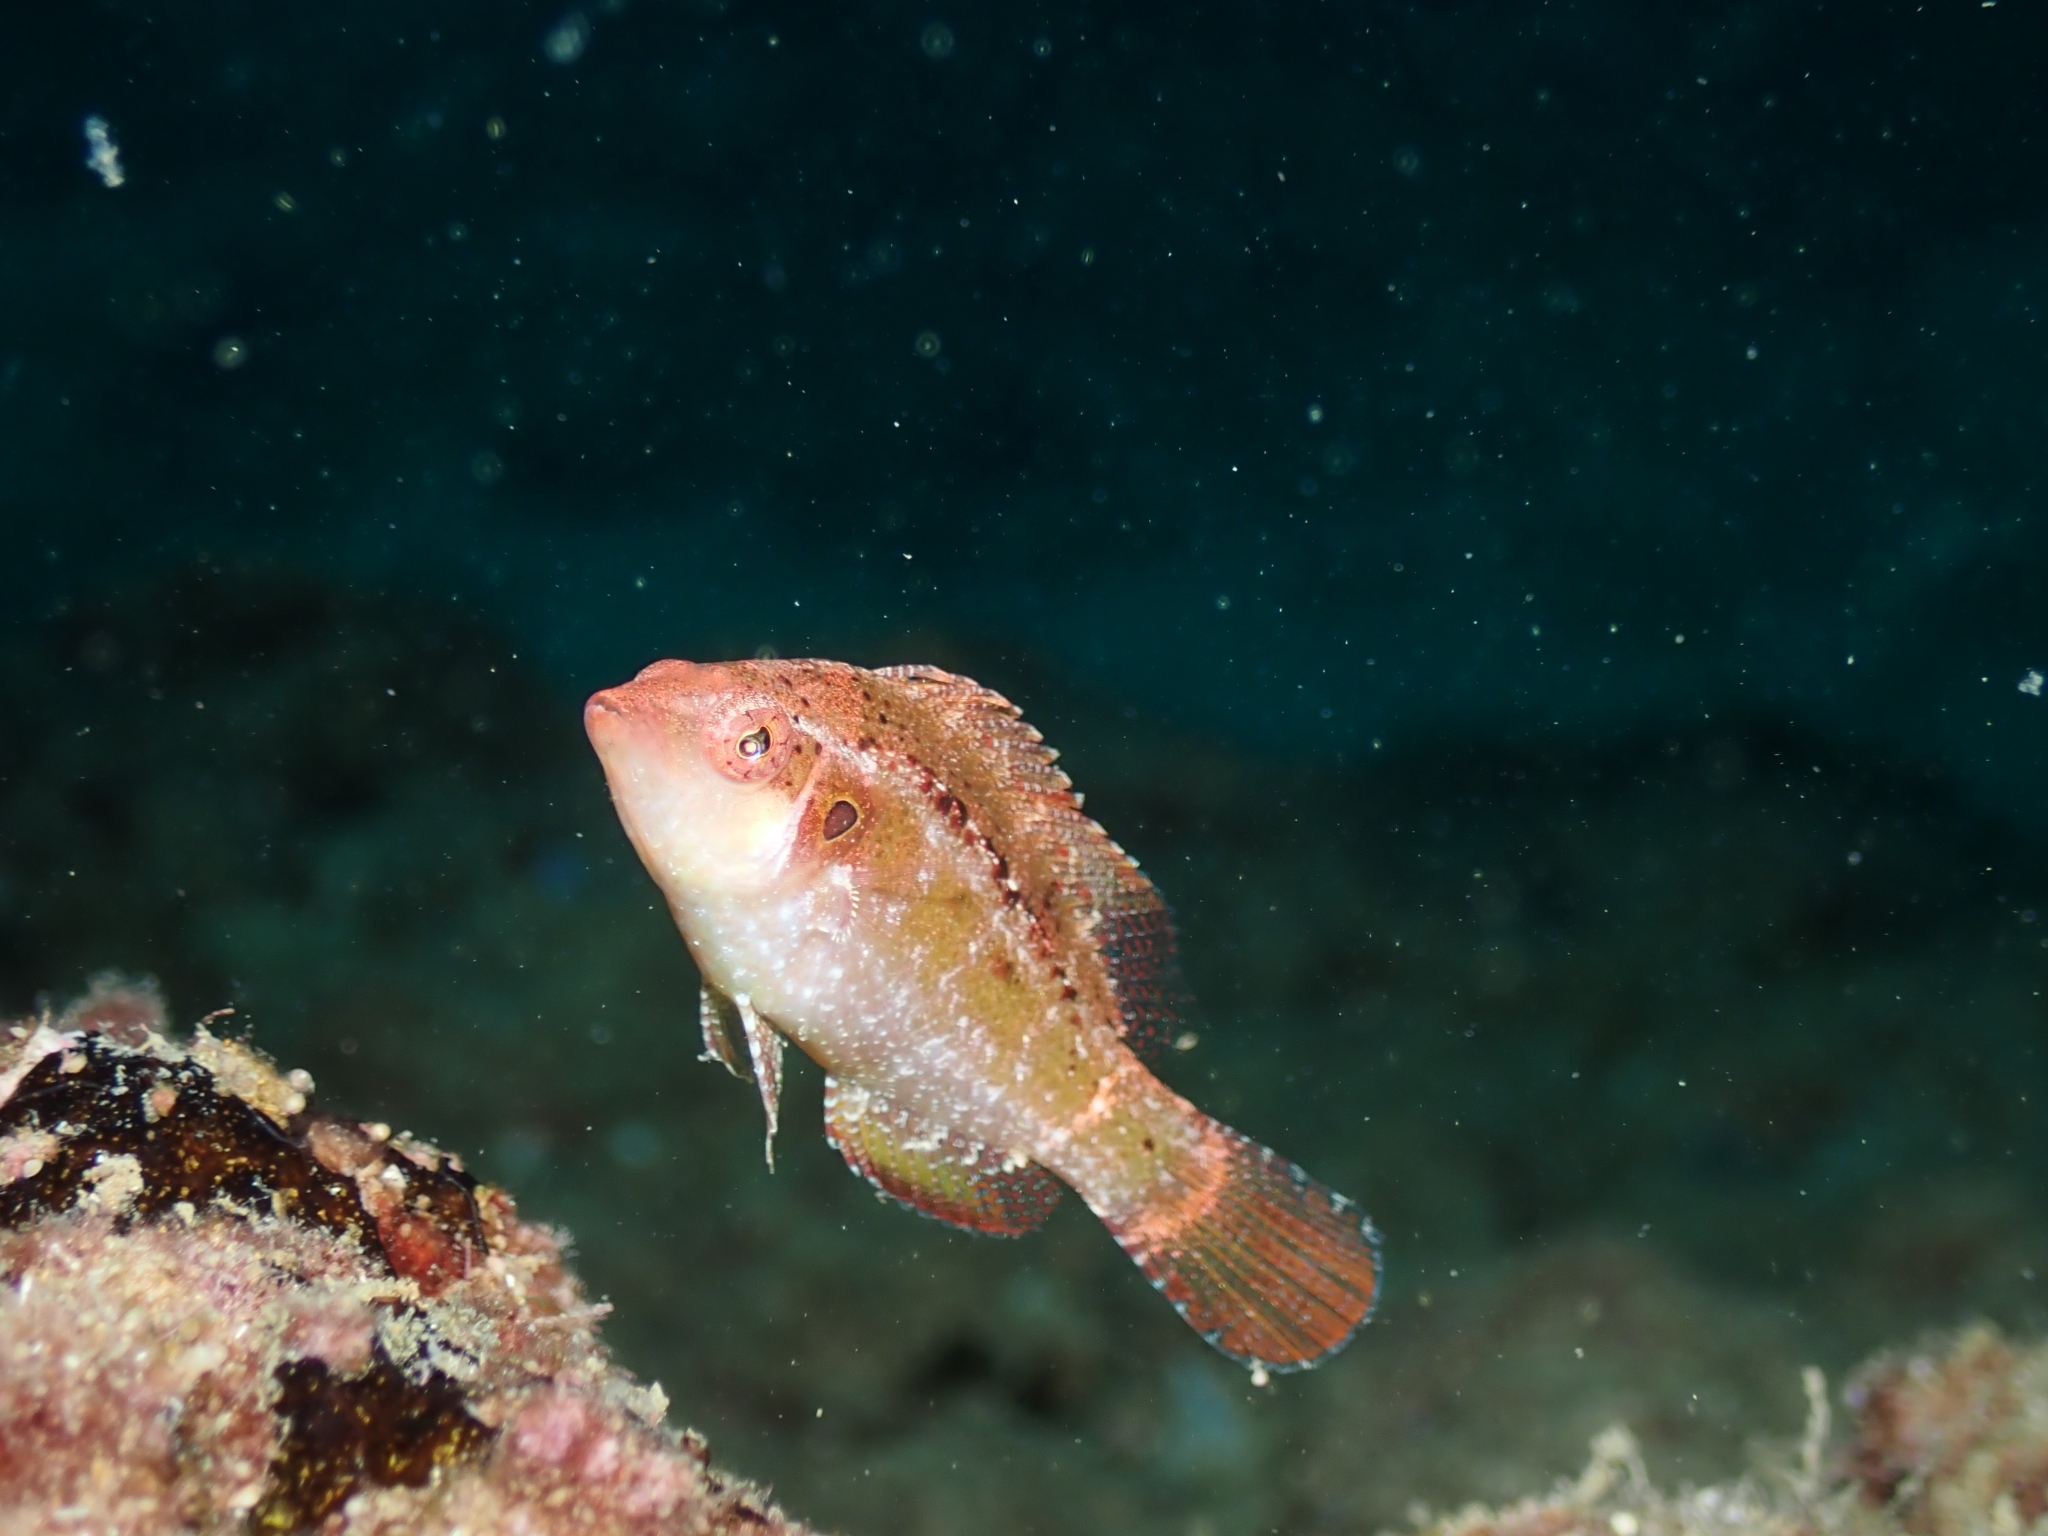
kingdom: Animalia
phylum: Chordata
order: Perciformes
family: Labridae
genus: Pteragogus
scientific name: Pteragogus trispilus
